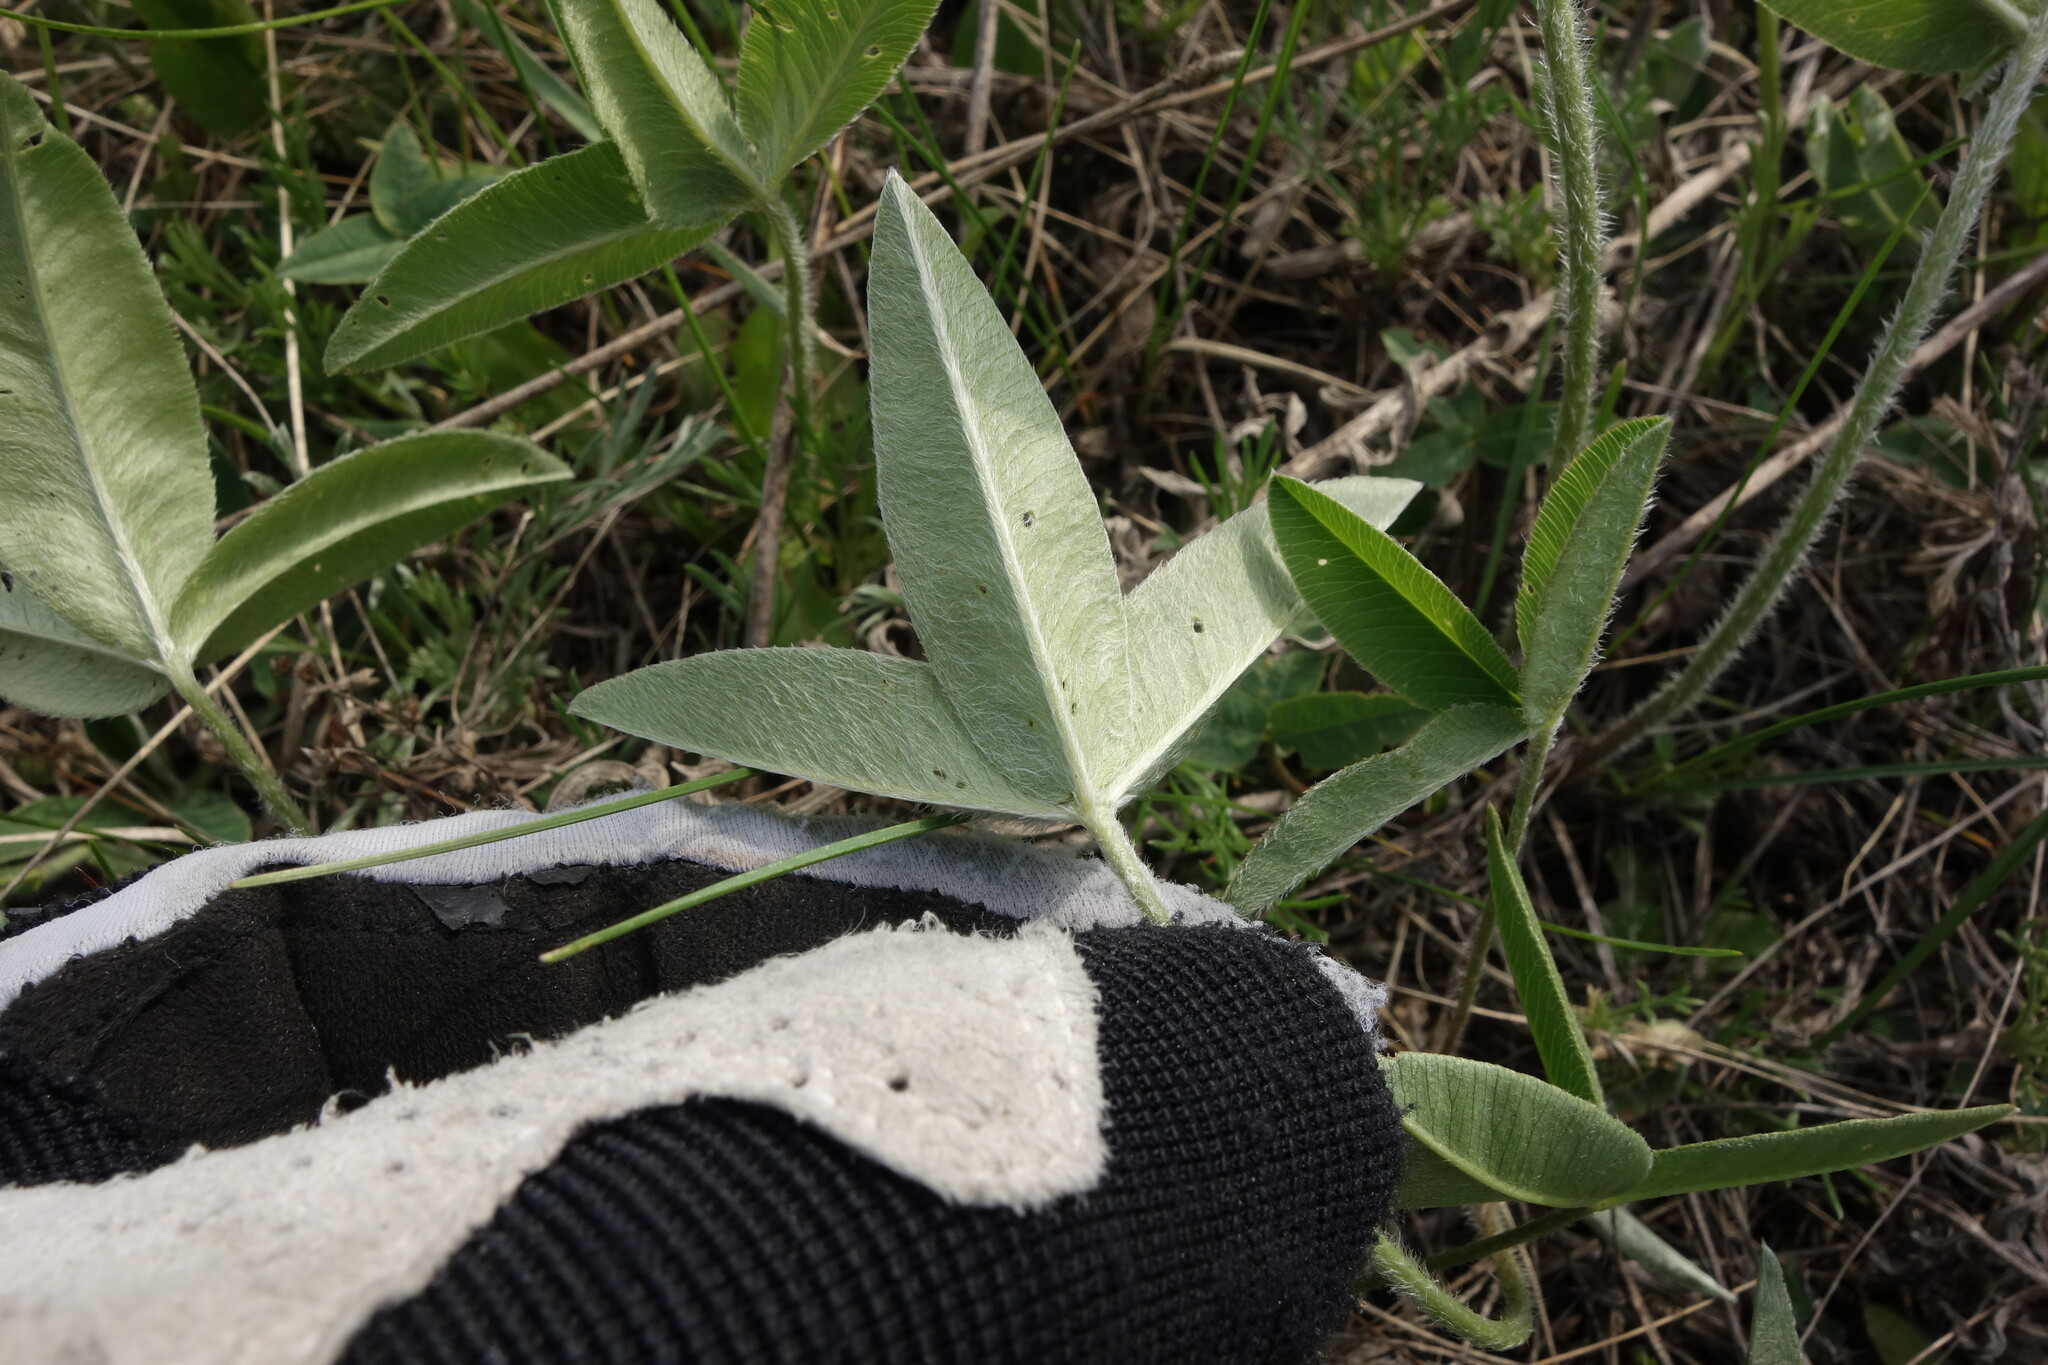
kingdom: Plantae
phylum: Tracheophyta
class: Magnoliopsida
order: Fabales
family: Fabaceae
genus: Trifolium
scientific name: Trifolium montanum
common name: Mountain clover
